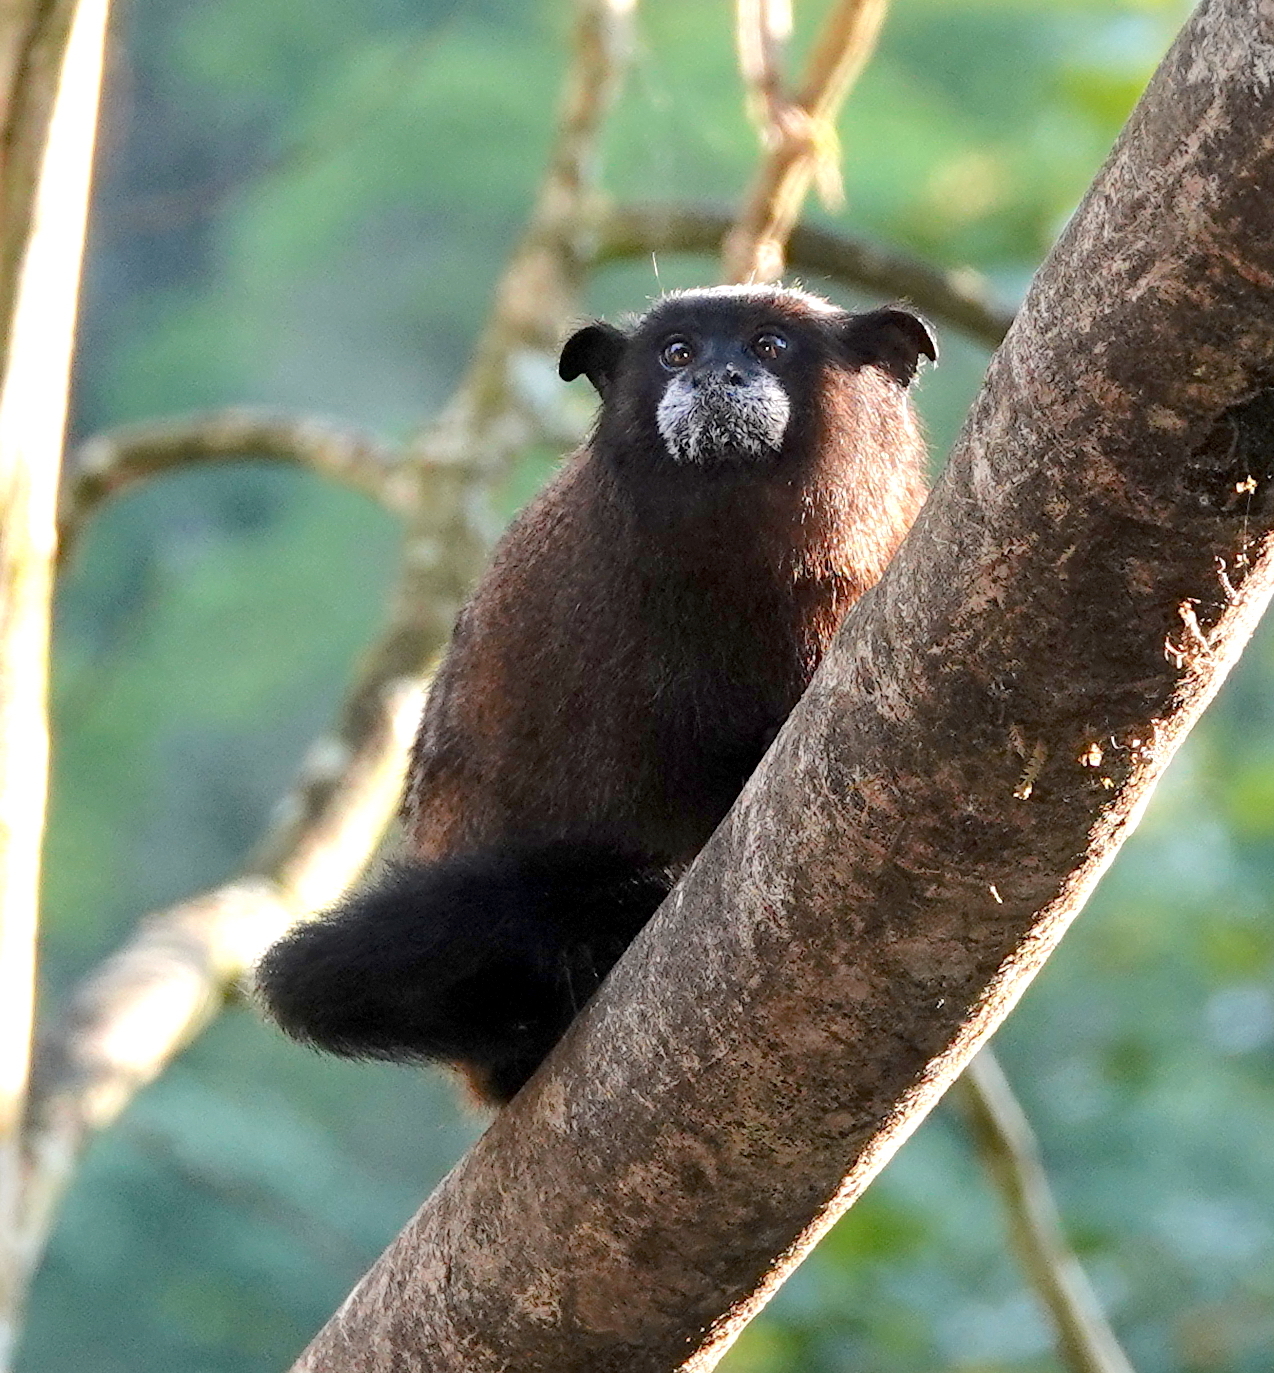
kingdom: Animalia
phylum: Chordata
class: Mammalia
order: Primates
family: Callitrichidae
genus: Leontocebus
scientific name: Leontocebus fuscus
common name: Lesson's saddle-back tamarin
